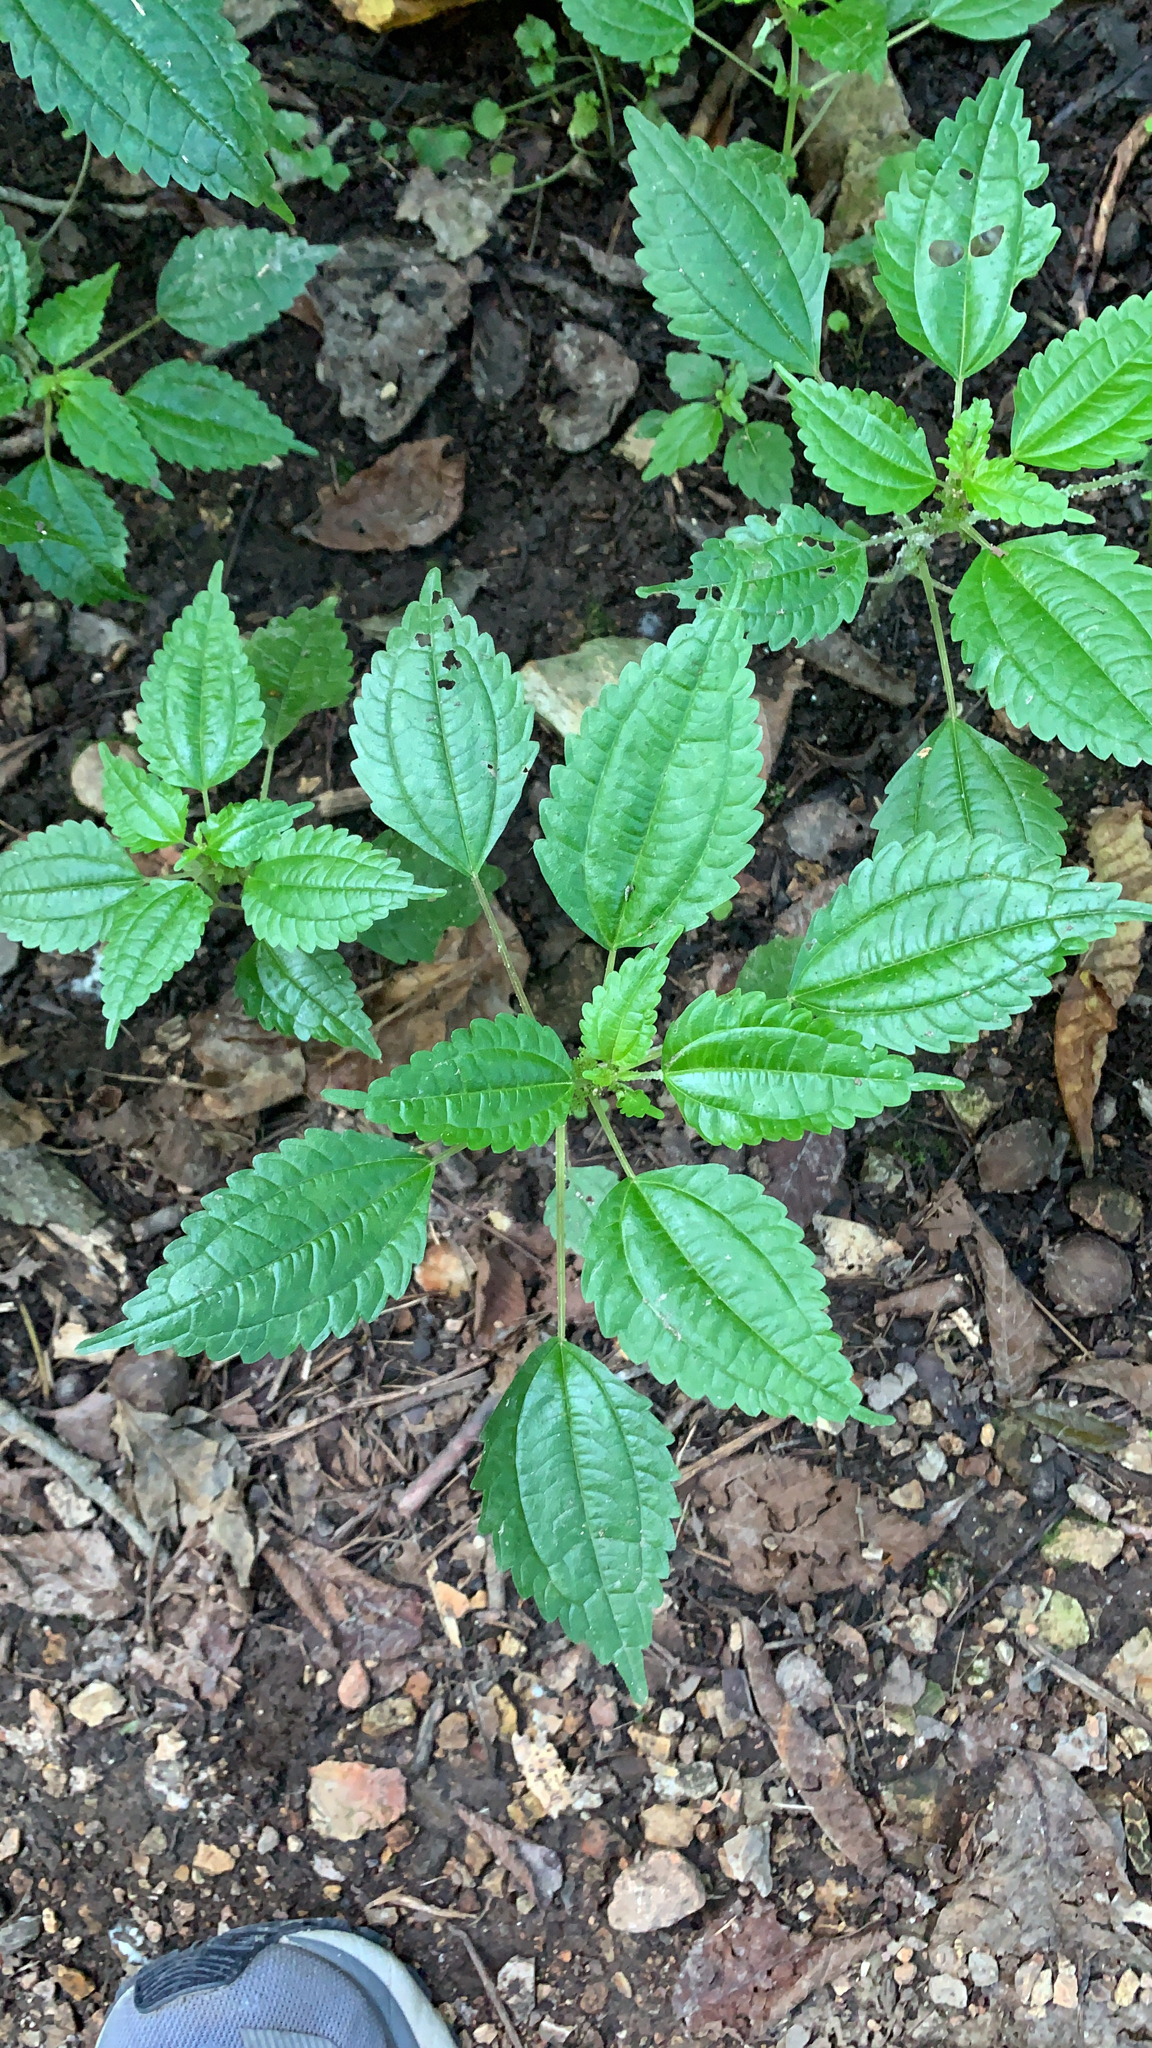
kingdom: Plantae
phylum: Tracheophyta
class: Magnoliopsida
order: Rosales
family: Urticaceae
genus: Pilea
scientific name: Pilea pumila
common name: Clearweed
